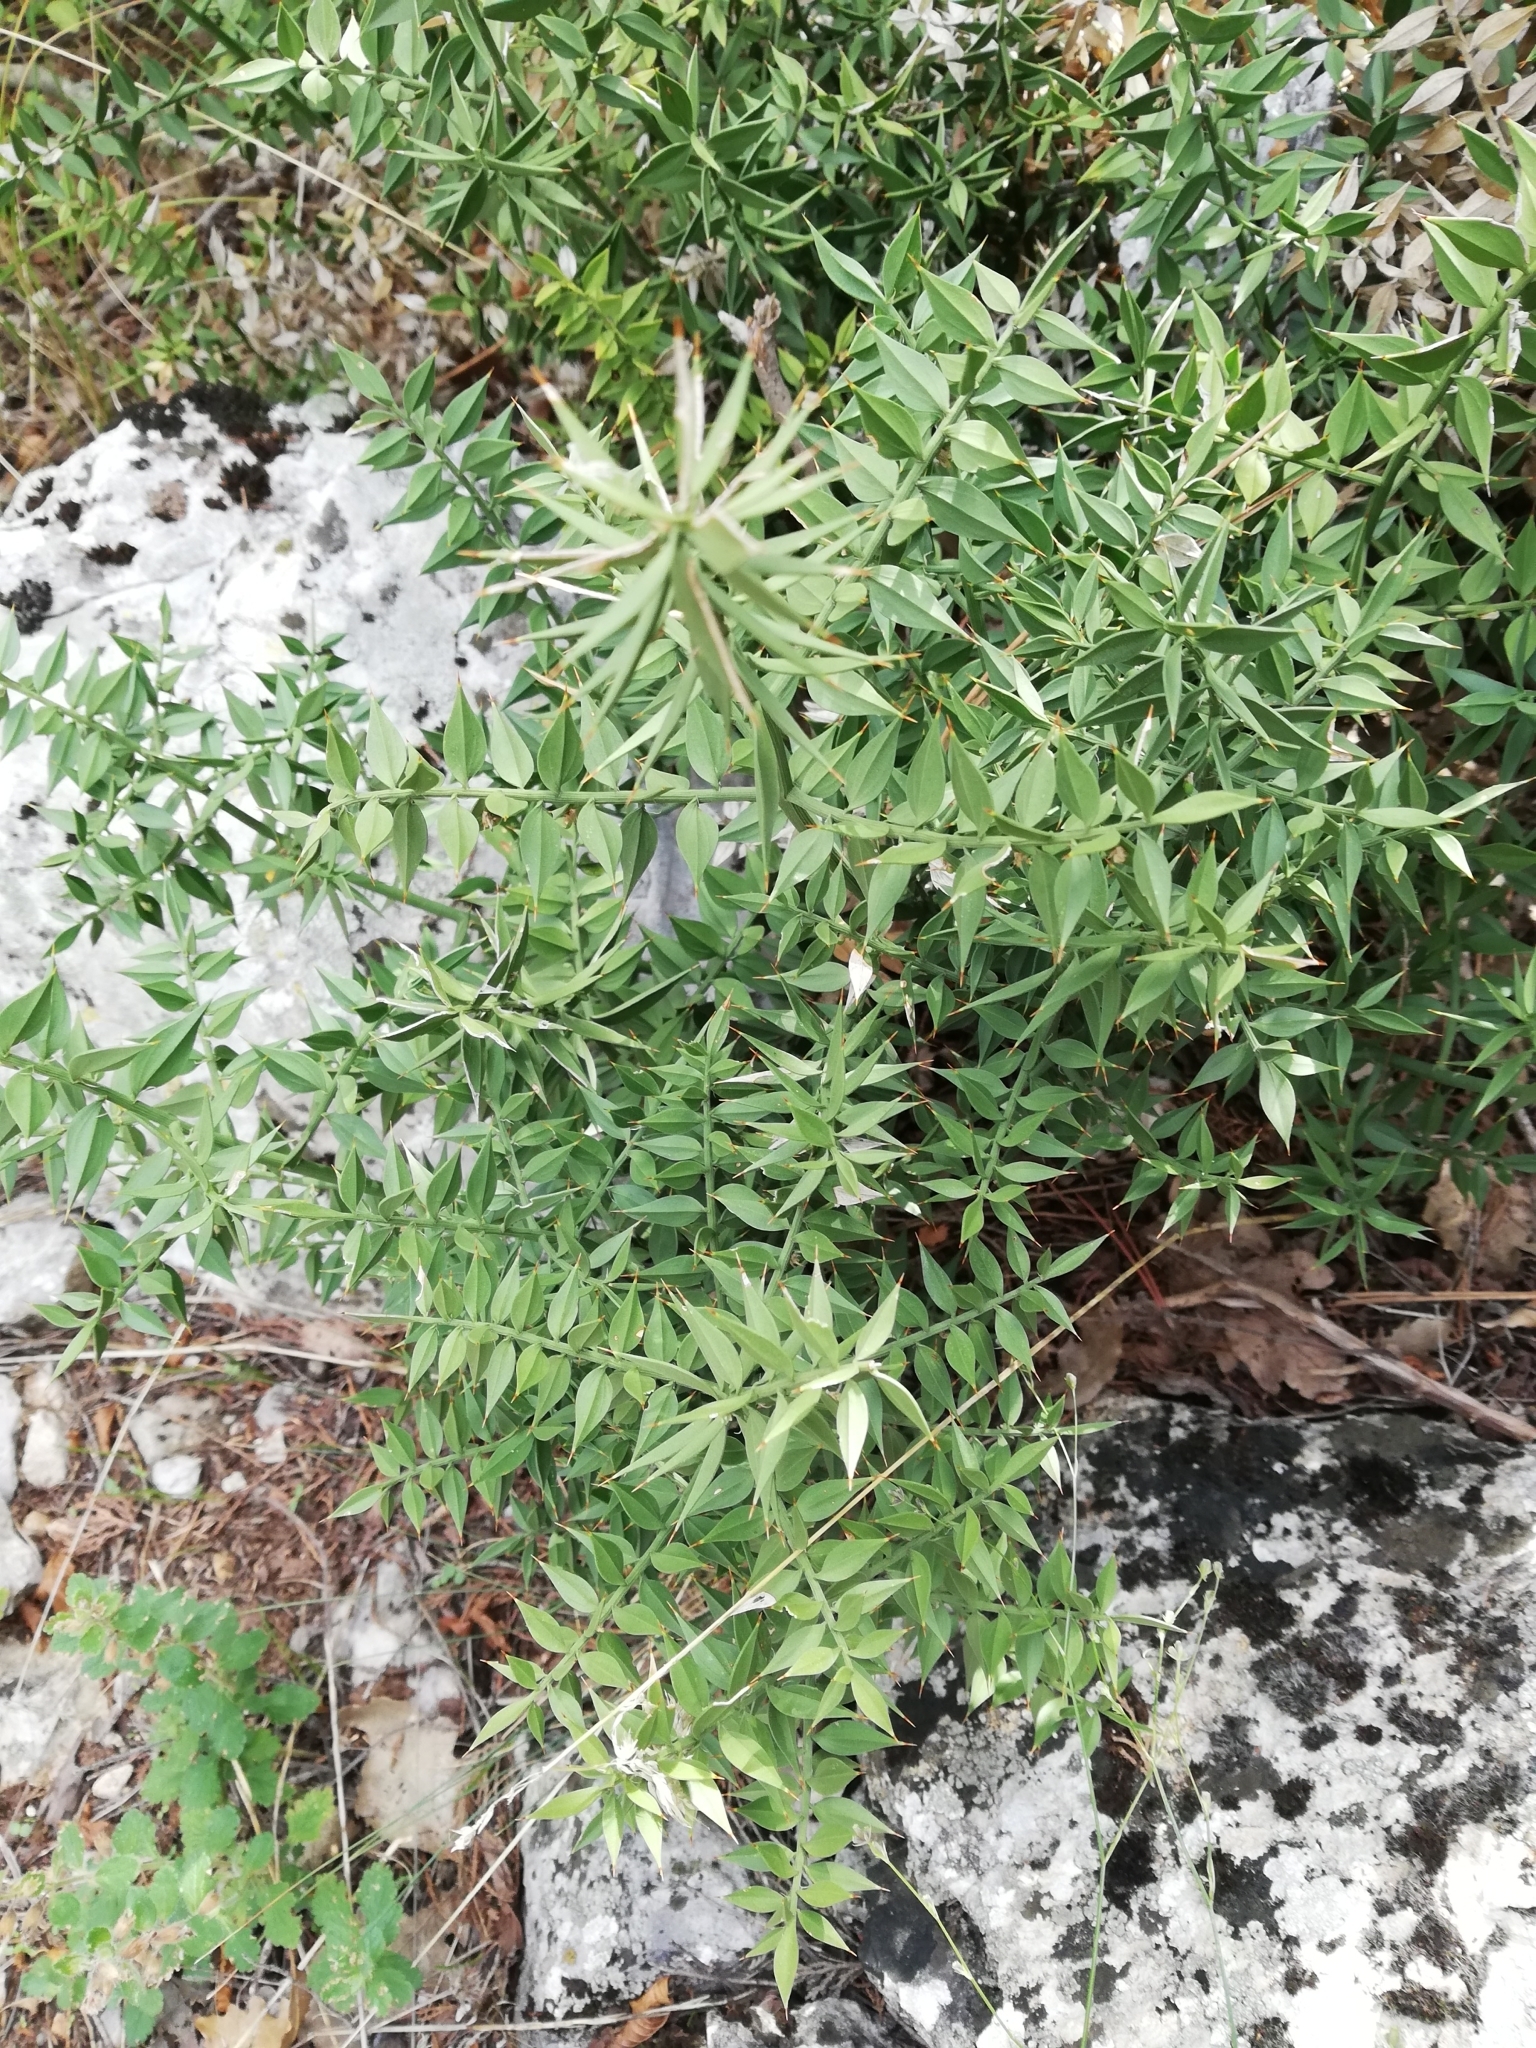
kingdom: Plantae
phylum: Tracheophyta
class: Liliopsida
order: Asparagales
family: Asparagaceae
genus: Ruscus
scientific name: Ruscus aculeatus
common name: Butcher's-broom
